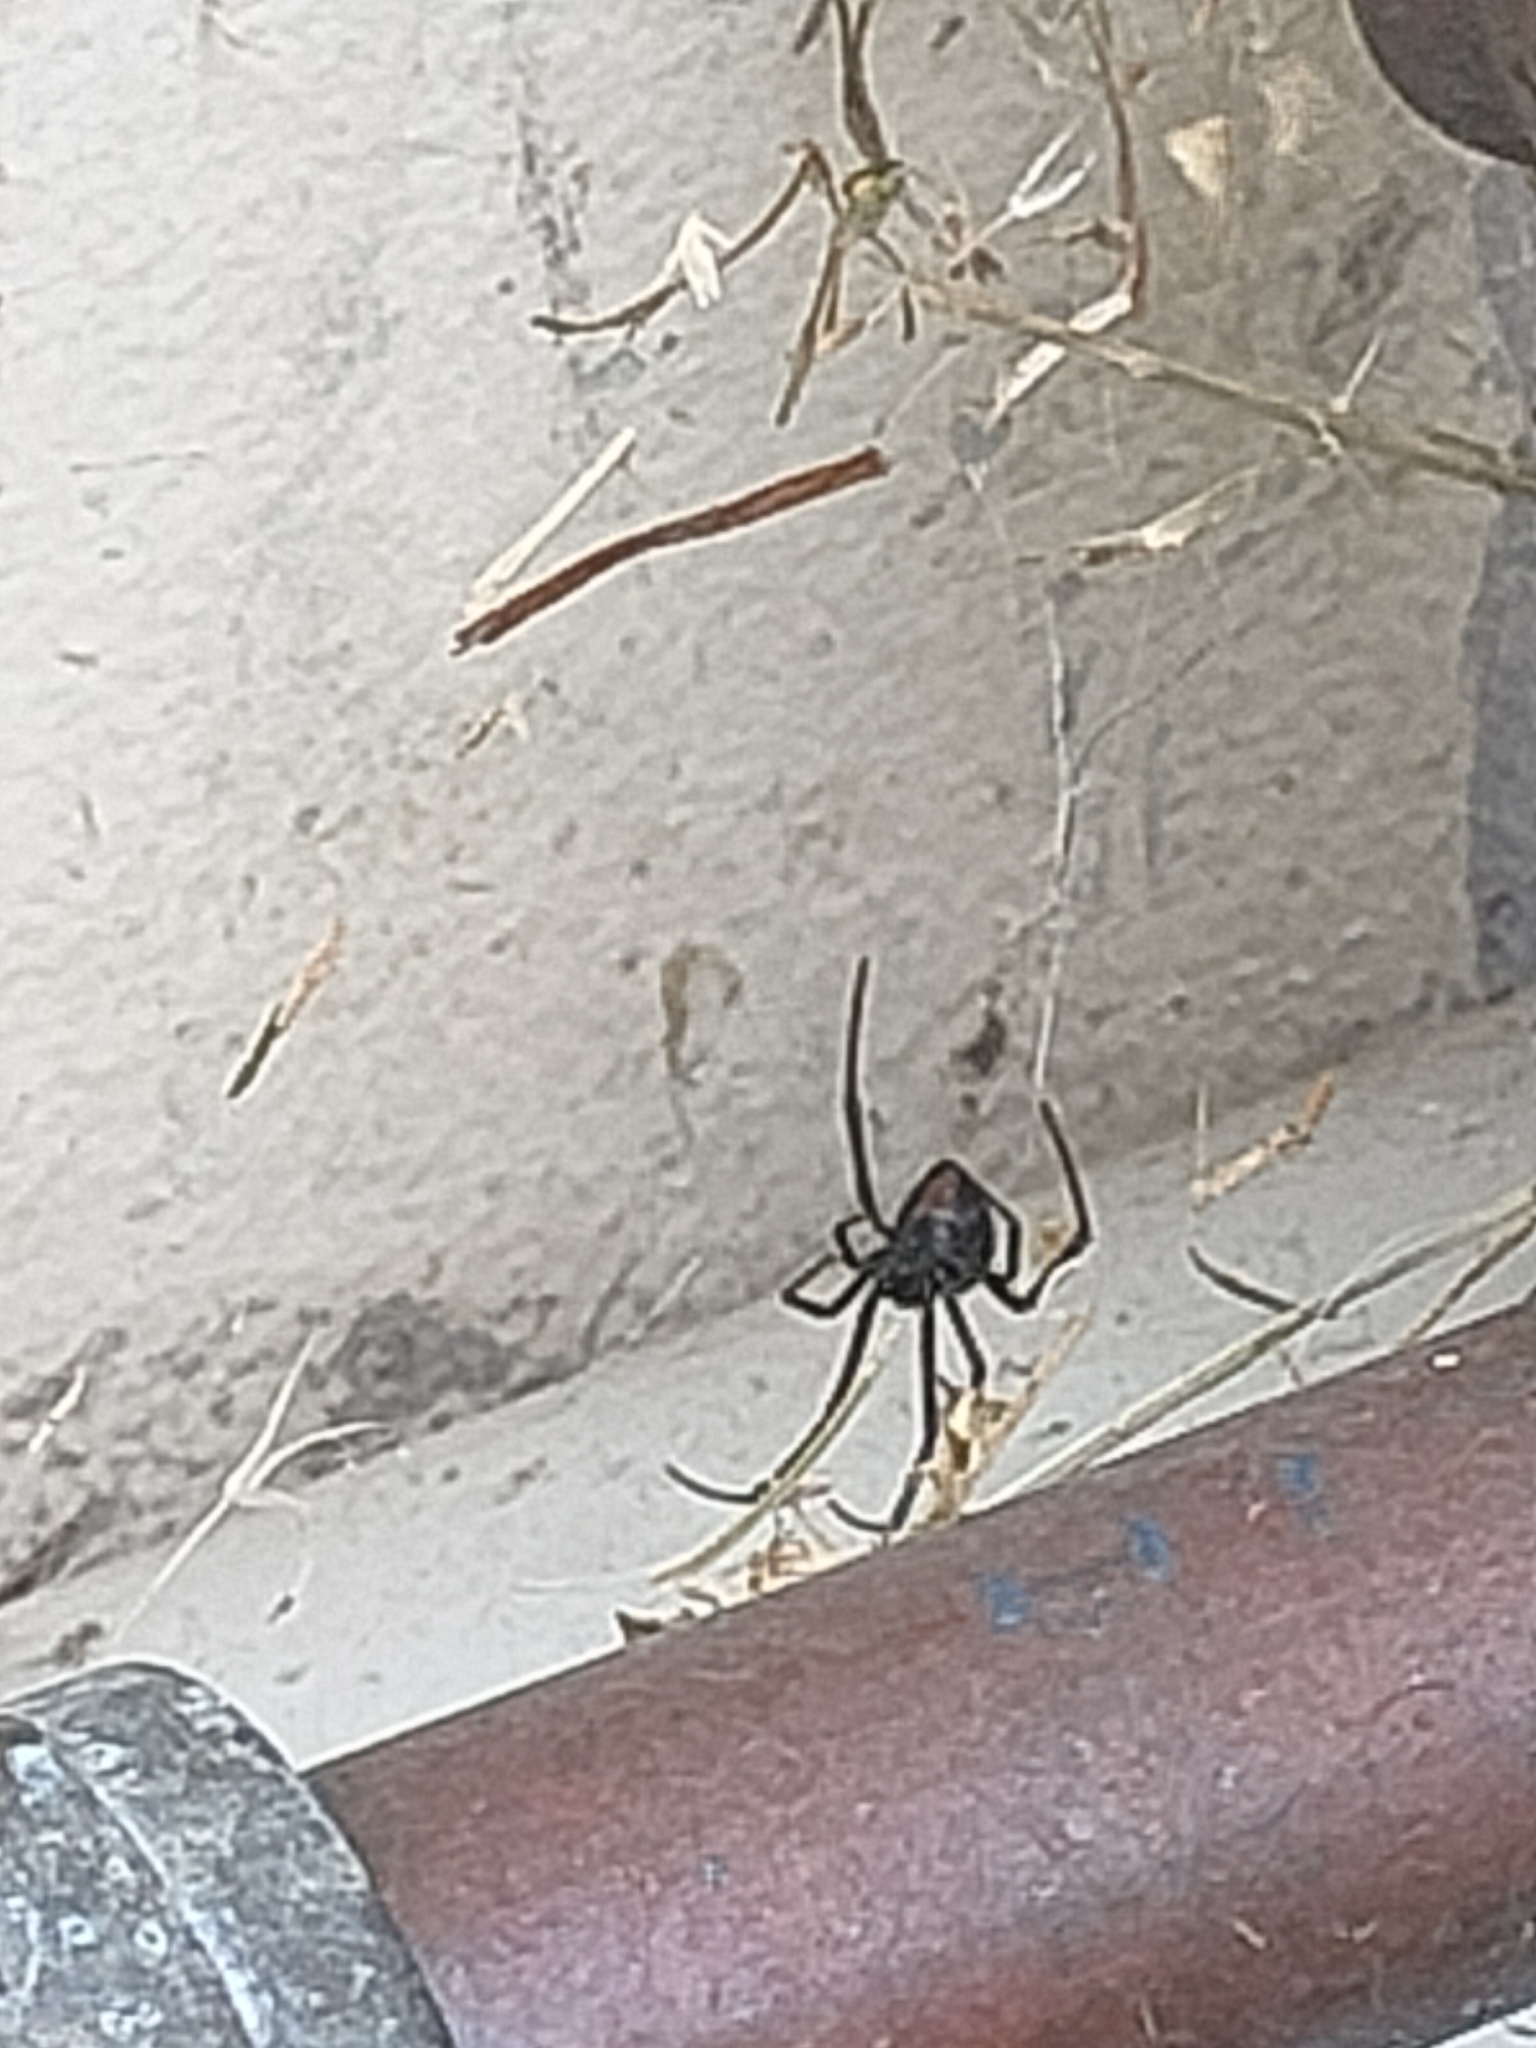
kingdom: Animalia
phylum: Arthropoda
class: Arachnida
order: Araneae
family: Theridiidae
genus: Latrodectus
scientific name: Latrodectus hasselti
